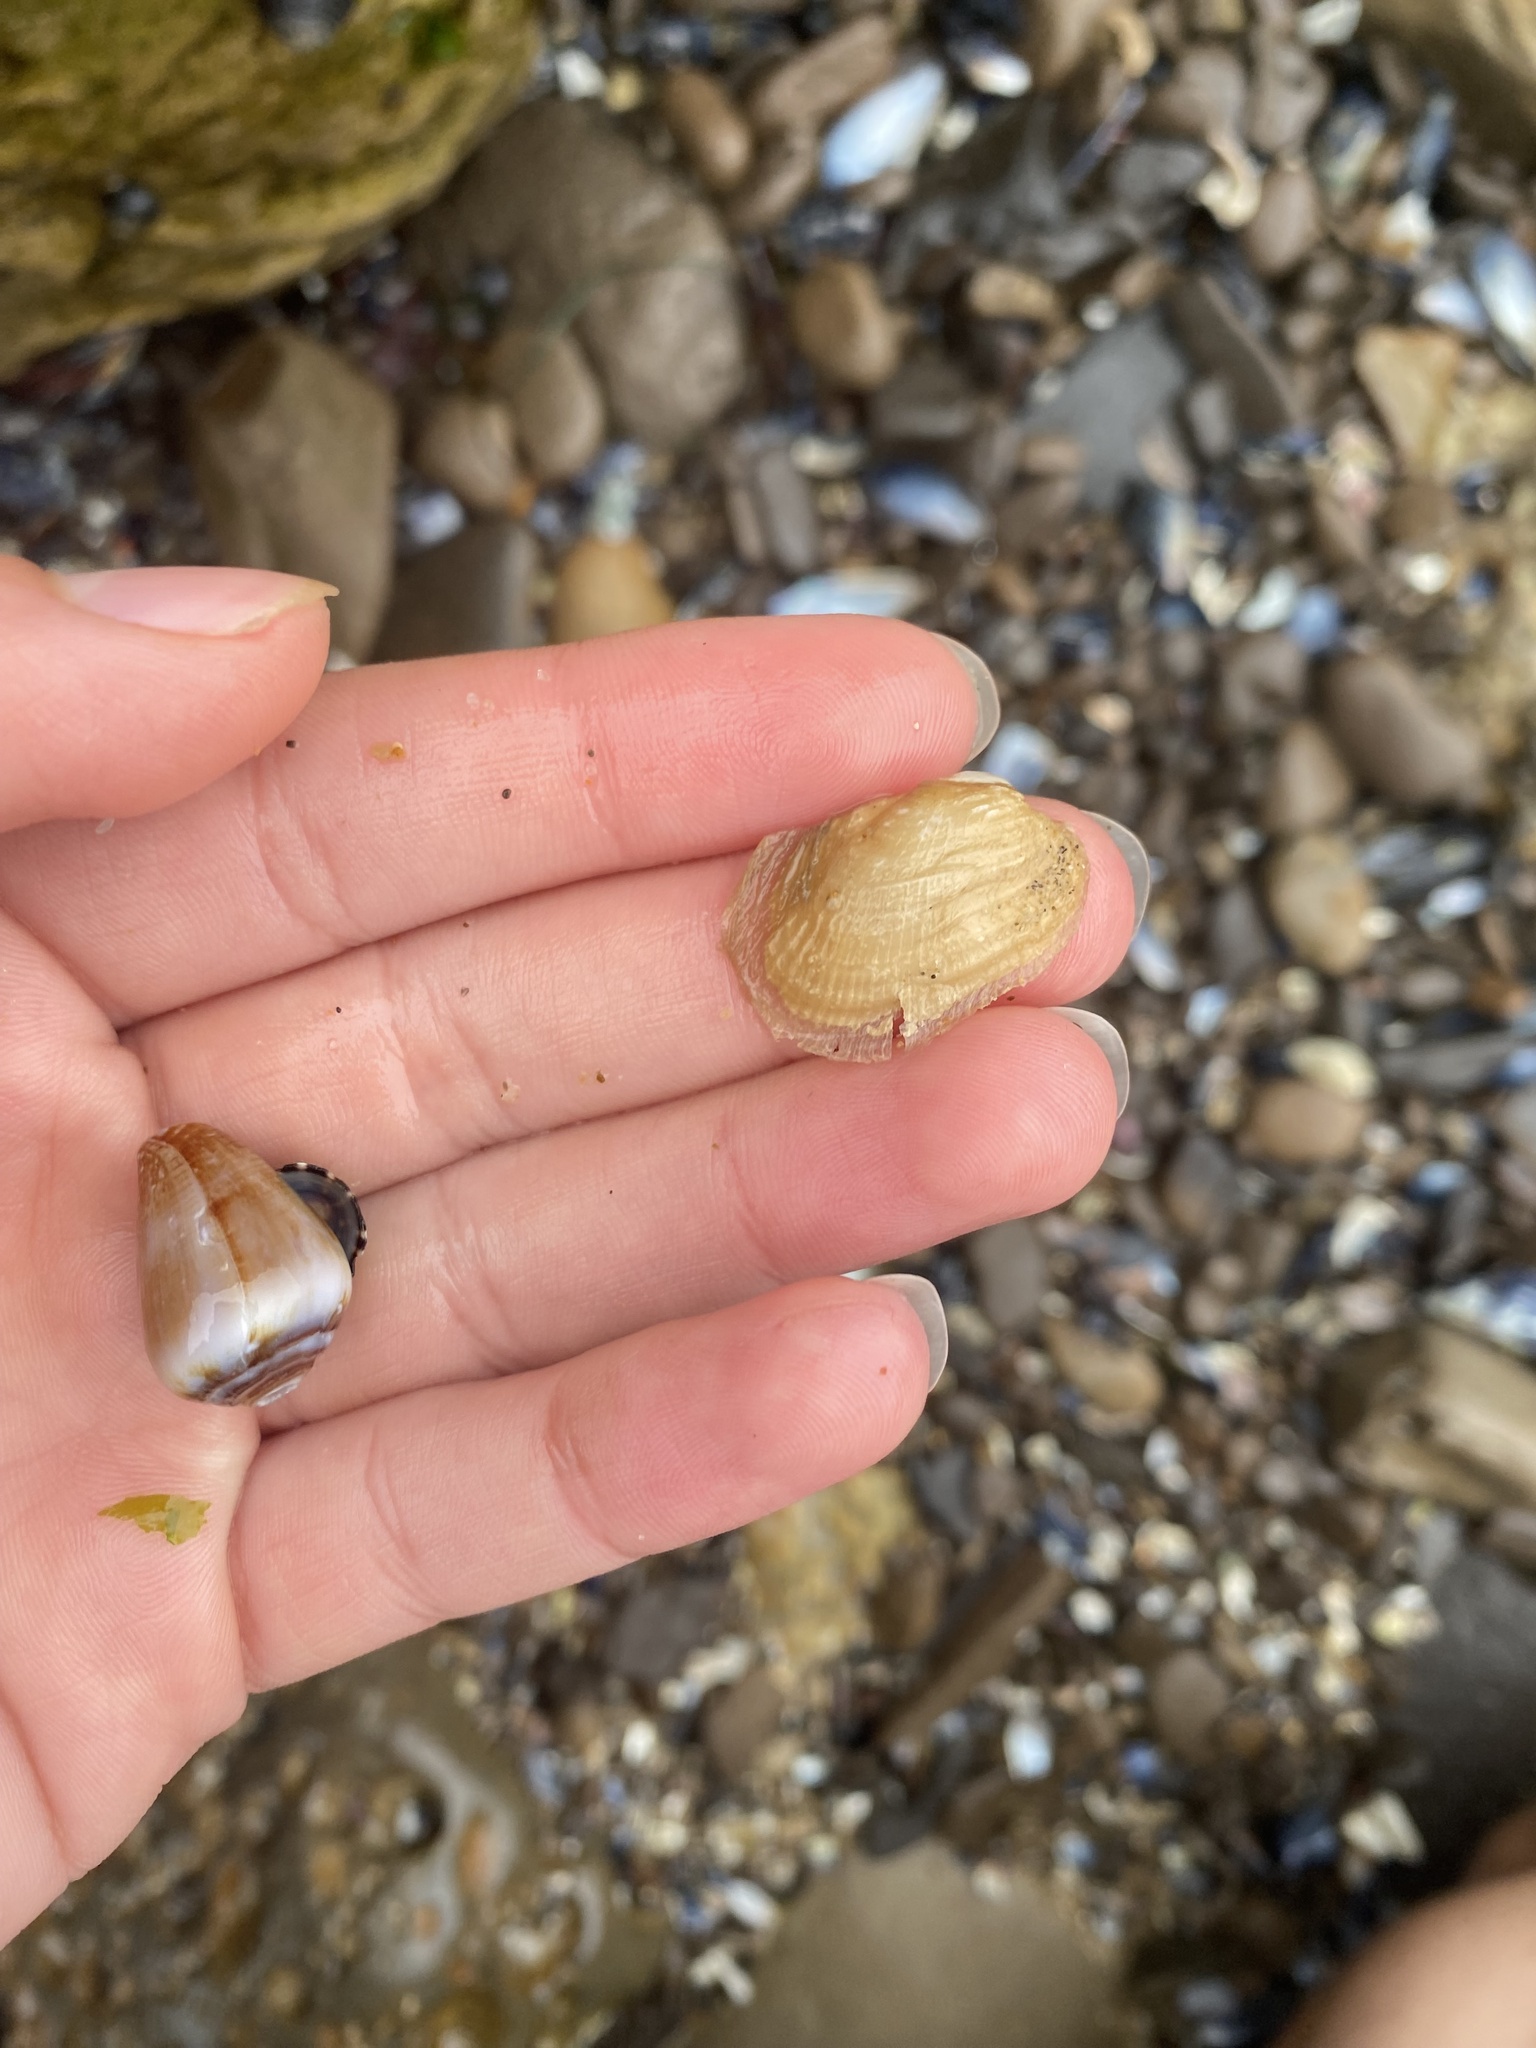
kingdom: Animalia
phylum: Mollusca
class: Gastropoda
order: Neogastropoda
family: Conidae
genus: Californiconus
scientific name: Californiconus californicus
